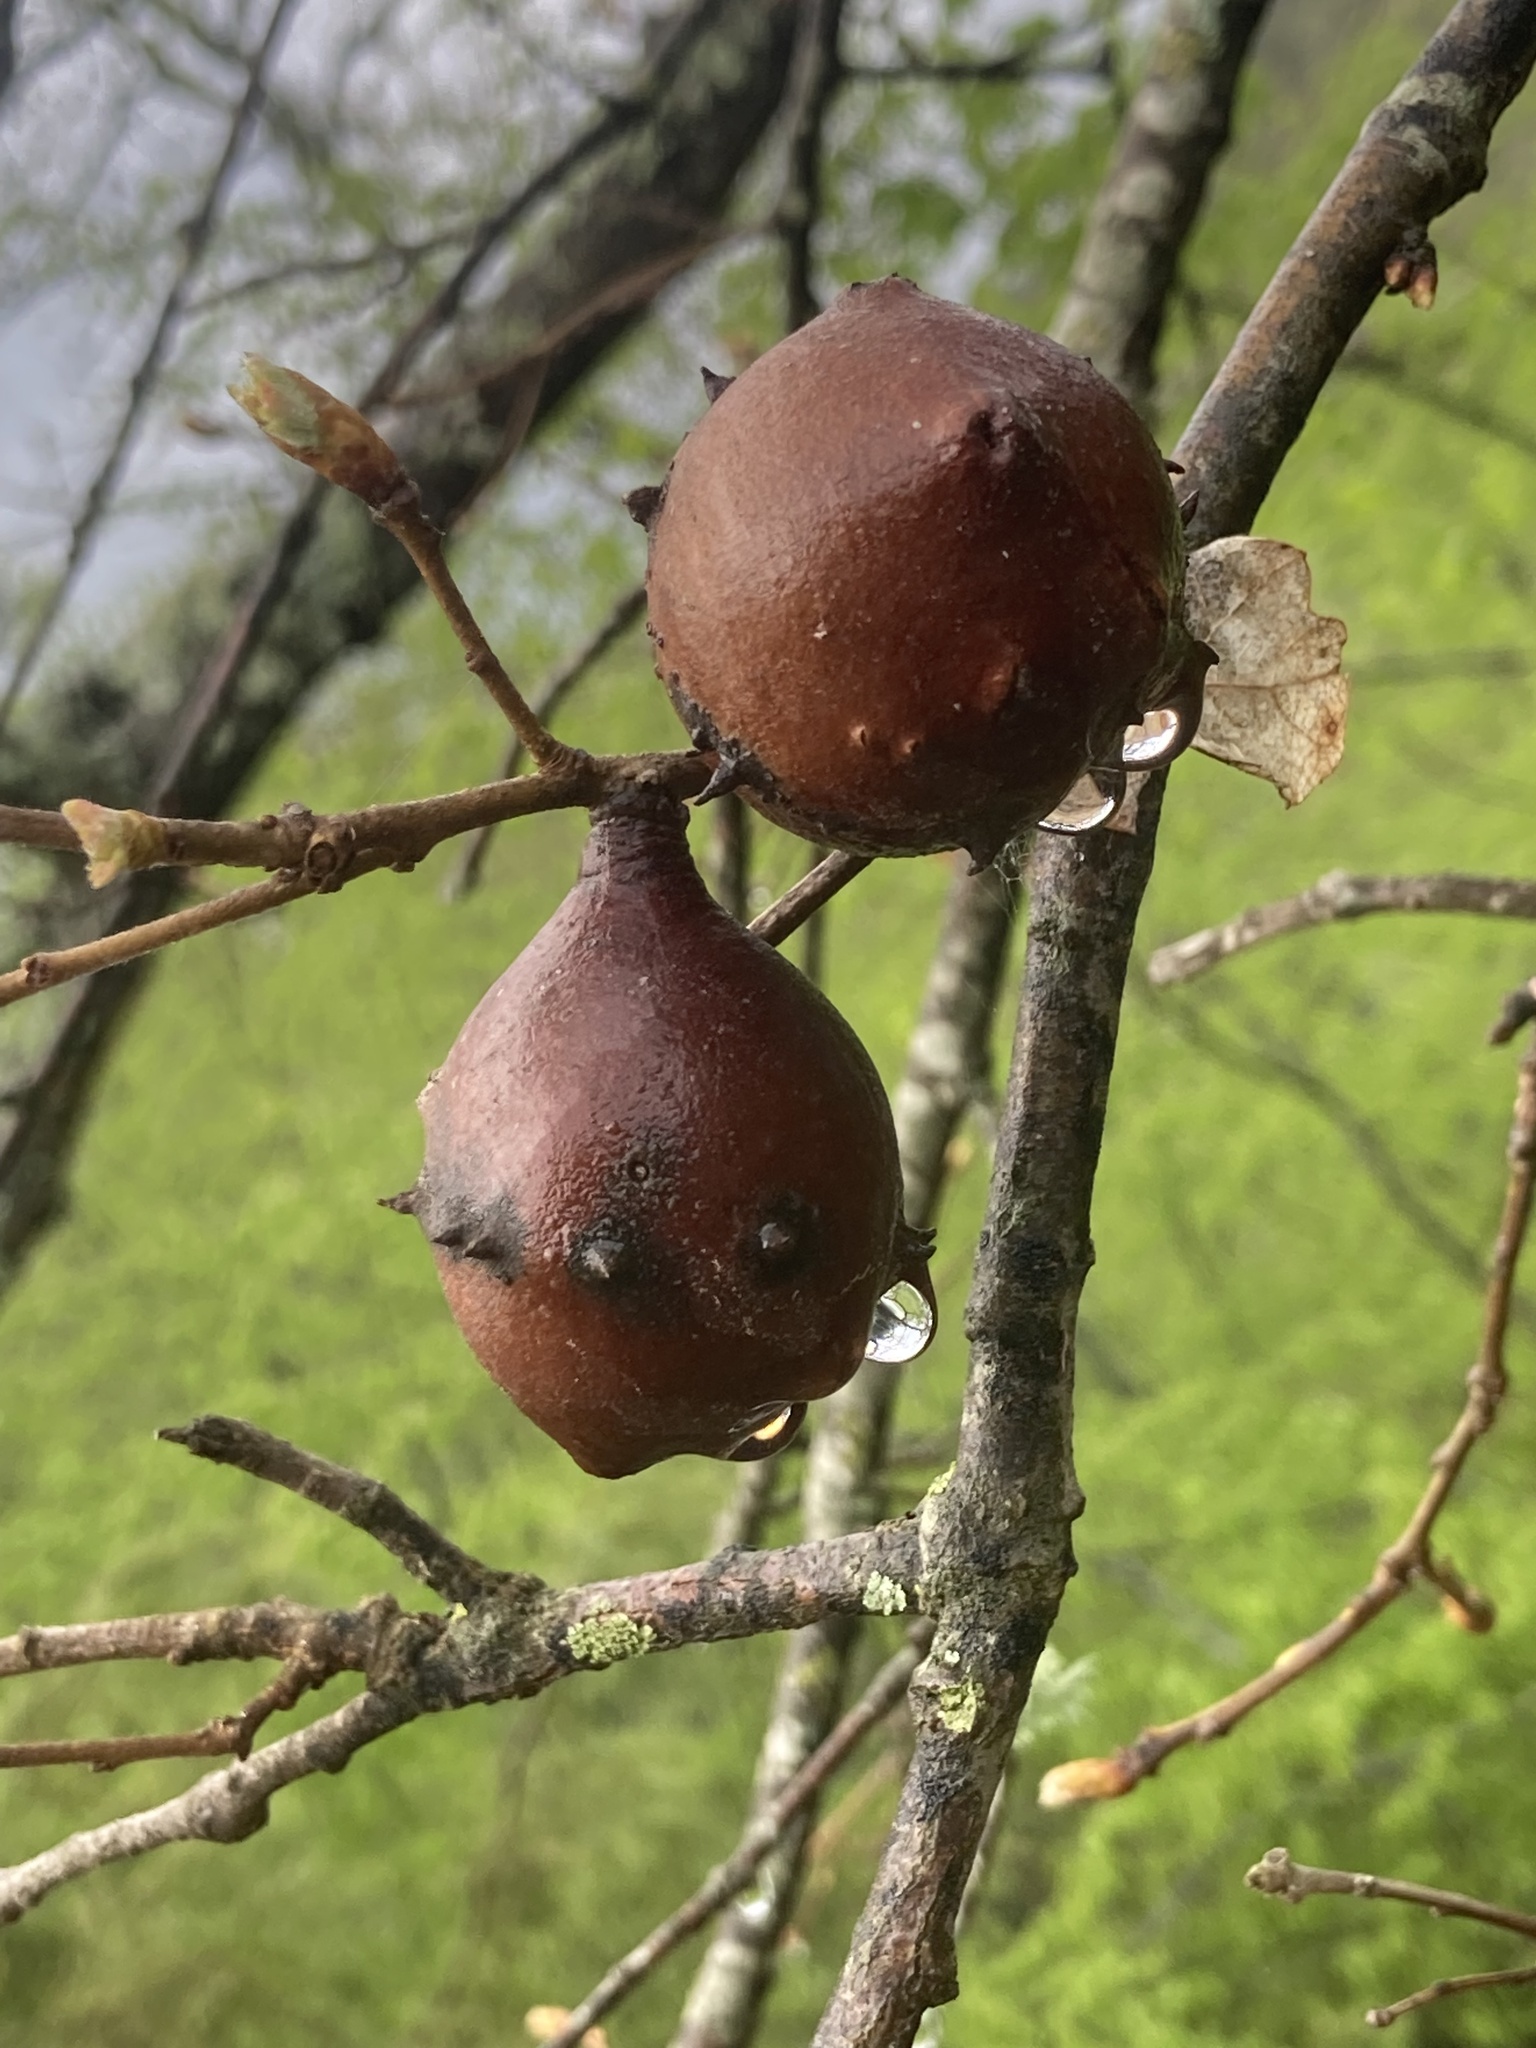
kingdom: Animalia
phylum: Arthropoda
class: Insecta
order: Hymenoptera
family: Cynipidae
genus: Andricus
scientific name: Andricus quercustozae
